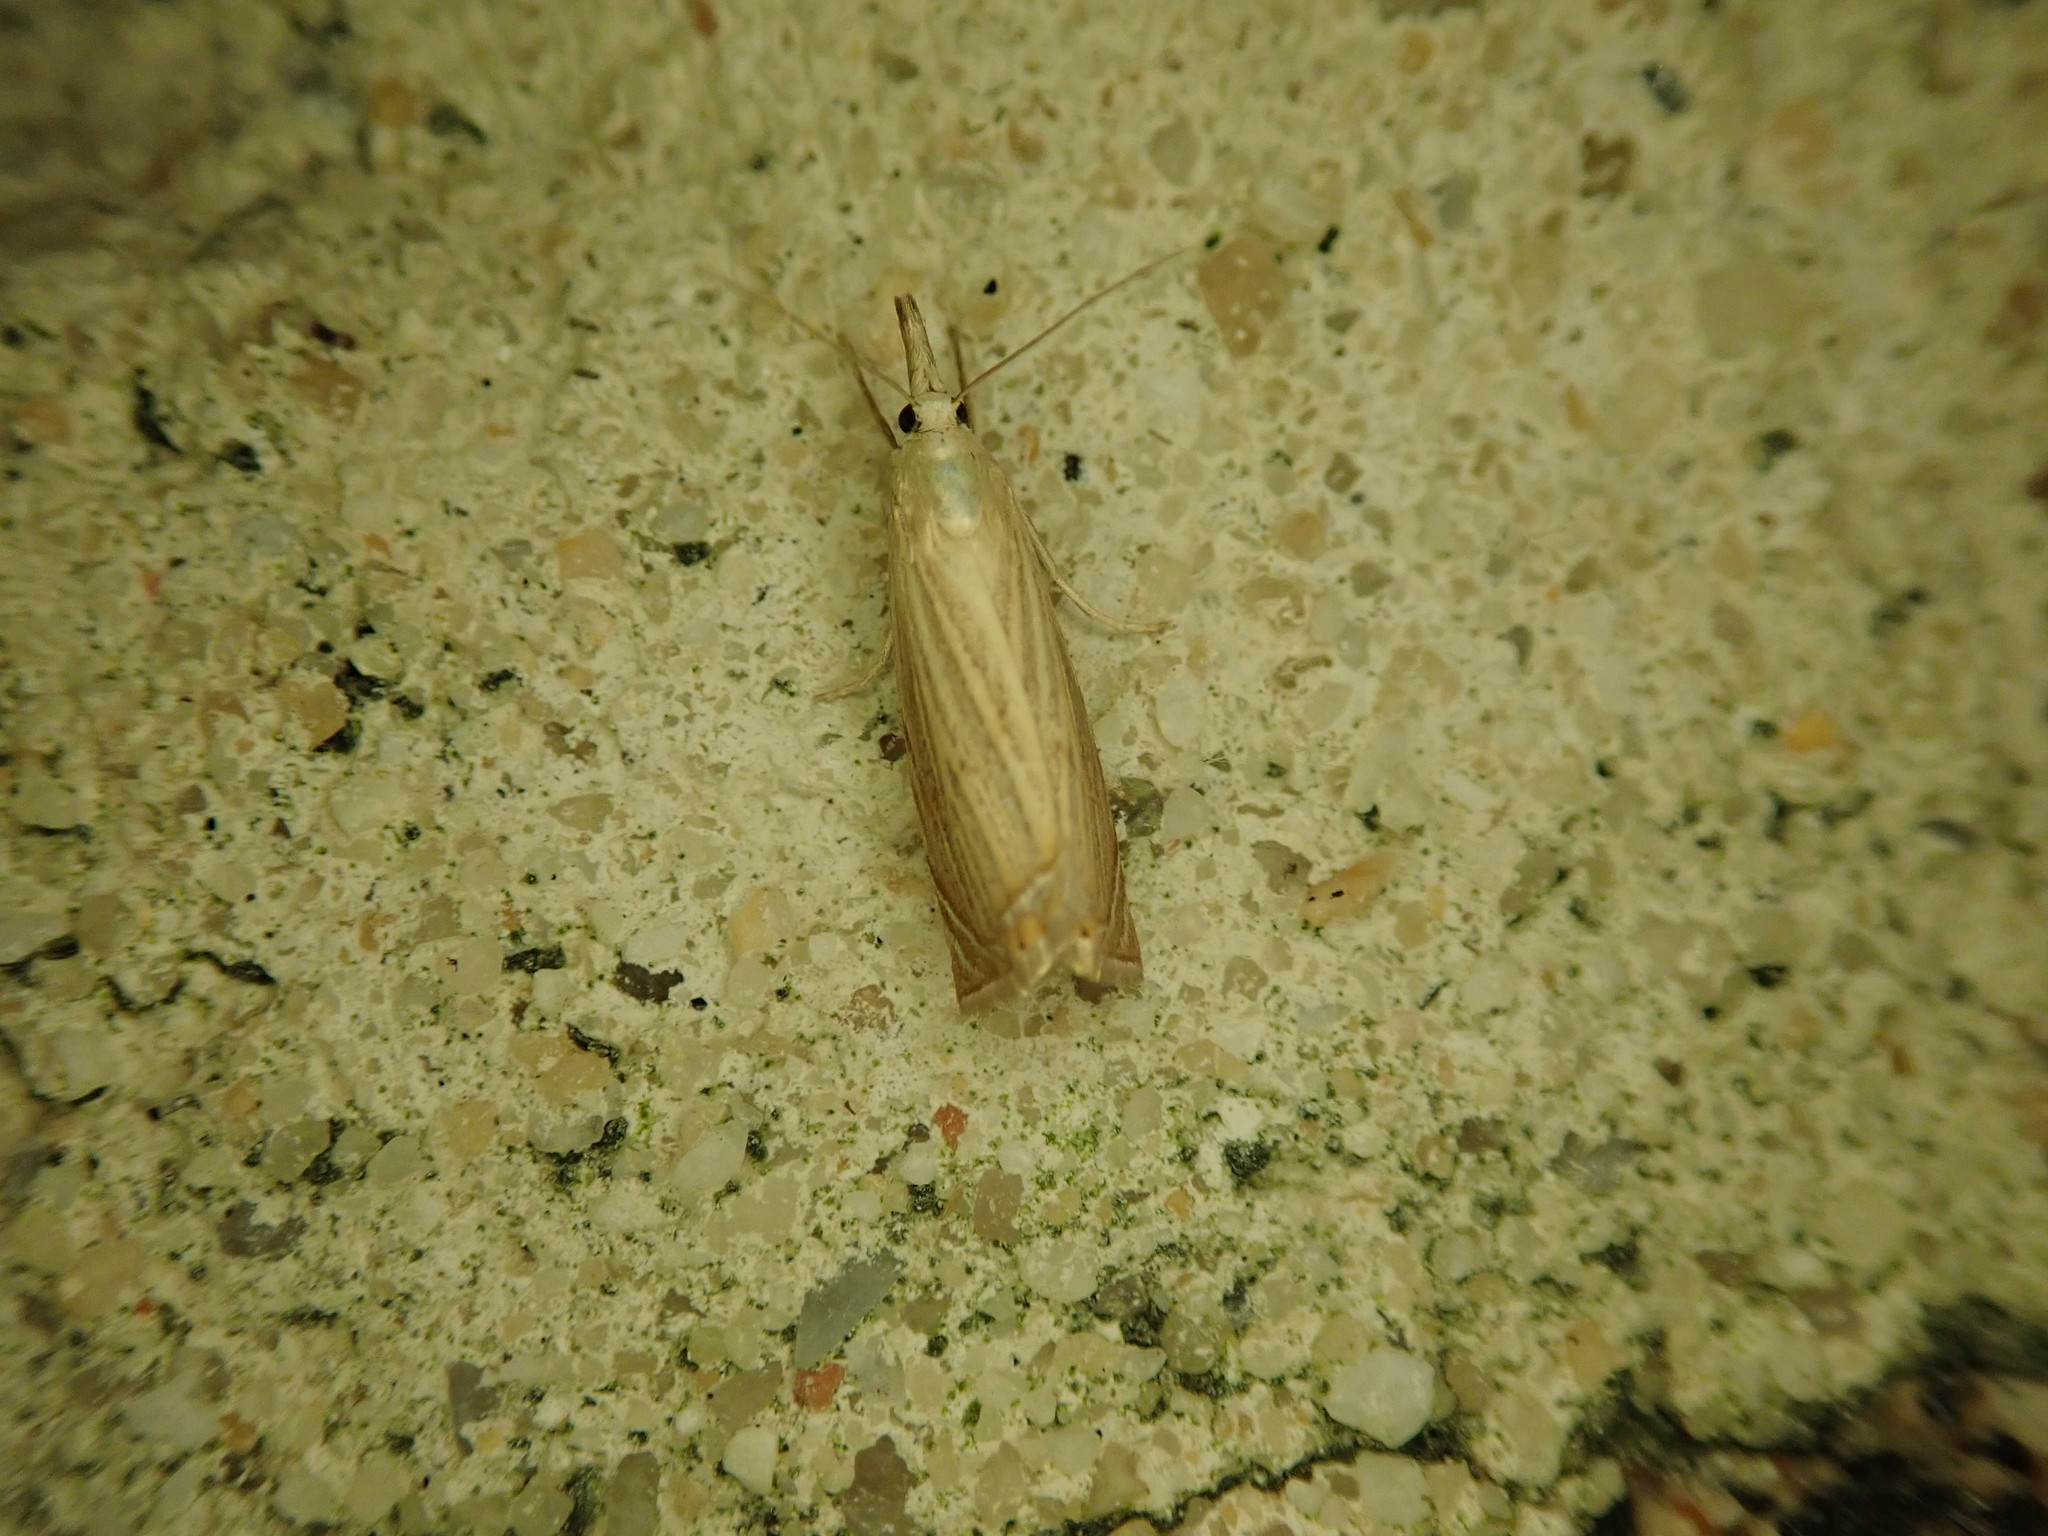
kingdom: Animalia
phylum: Arthropoda
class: Insecta
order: Lepidoptera
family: Crambidae
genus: Chrysoteuchia
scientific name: Chrysoteuchia culmella
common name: Garden grass-veneer
